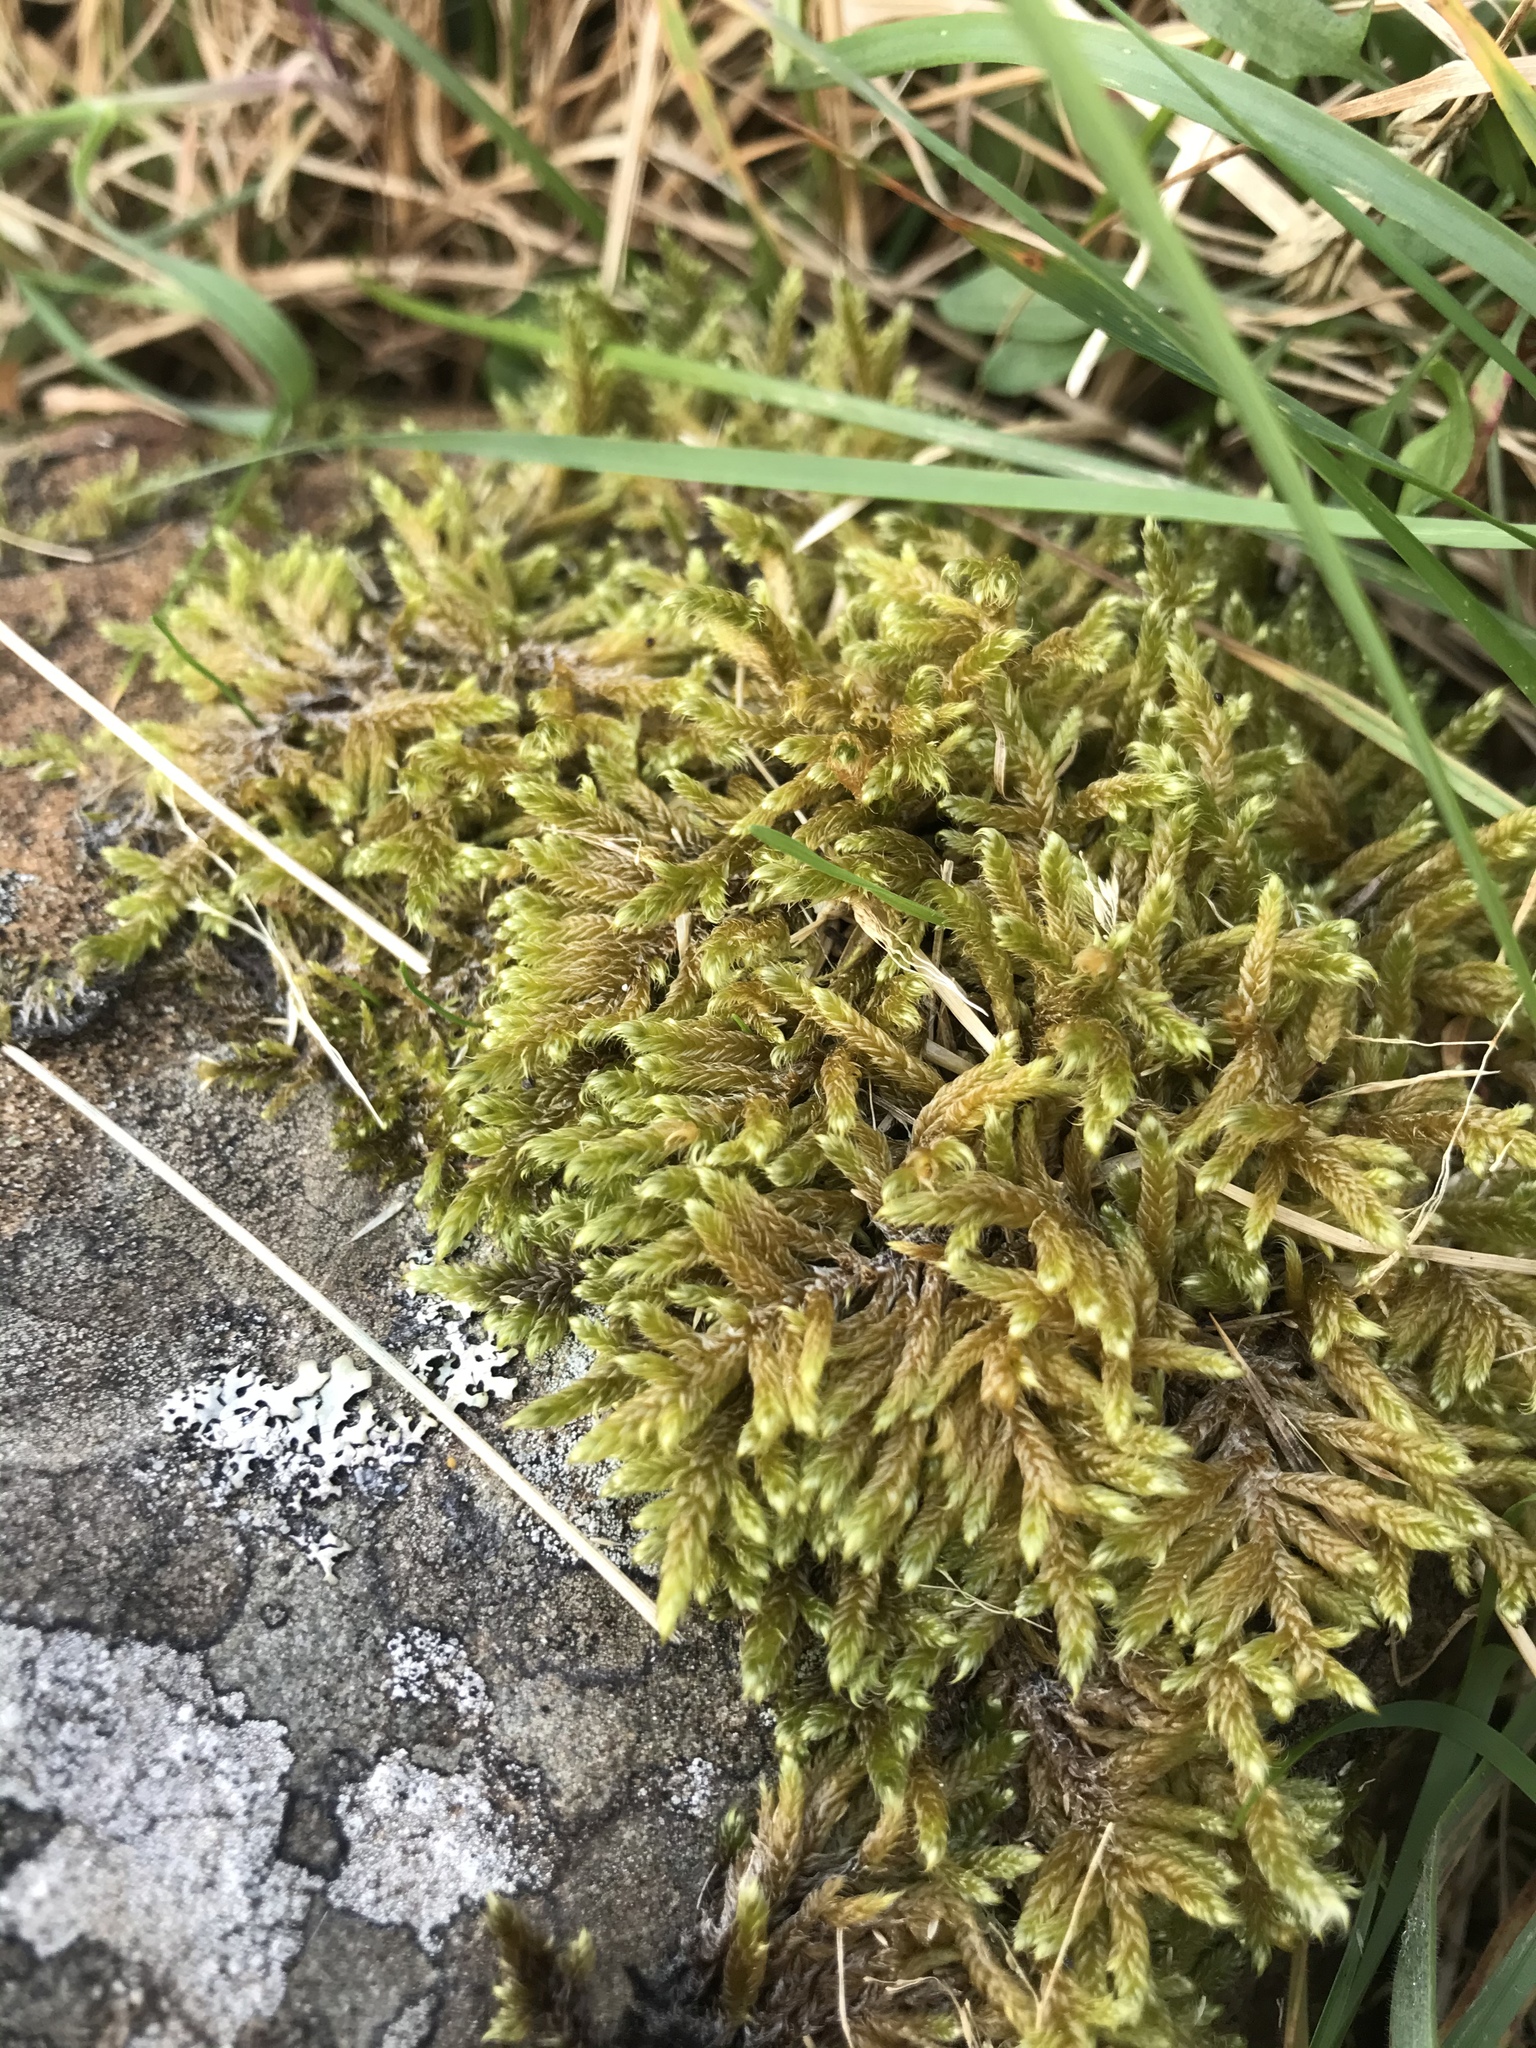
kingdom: Plantae
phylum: Bryophyta
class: Bryopsida
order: Hypnales
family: Hypnaceae
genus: Hypnum
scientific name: Hypnum cupressiforme
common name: Cypress-leaved plait-moss
